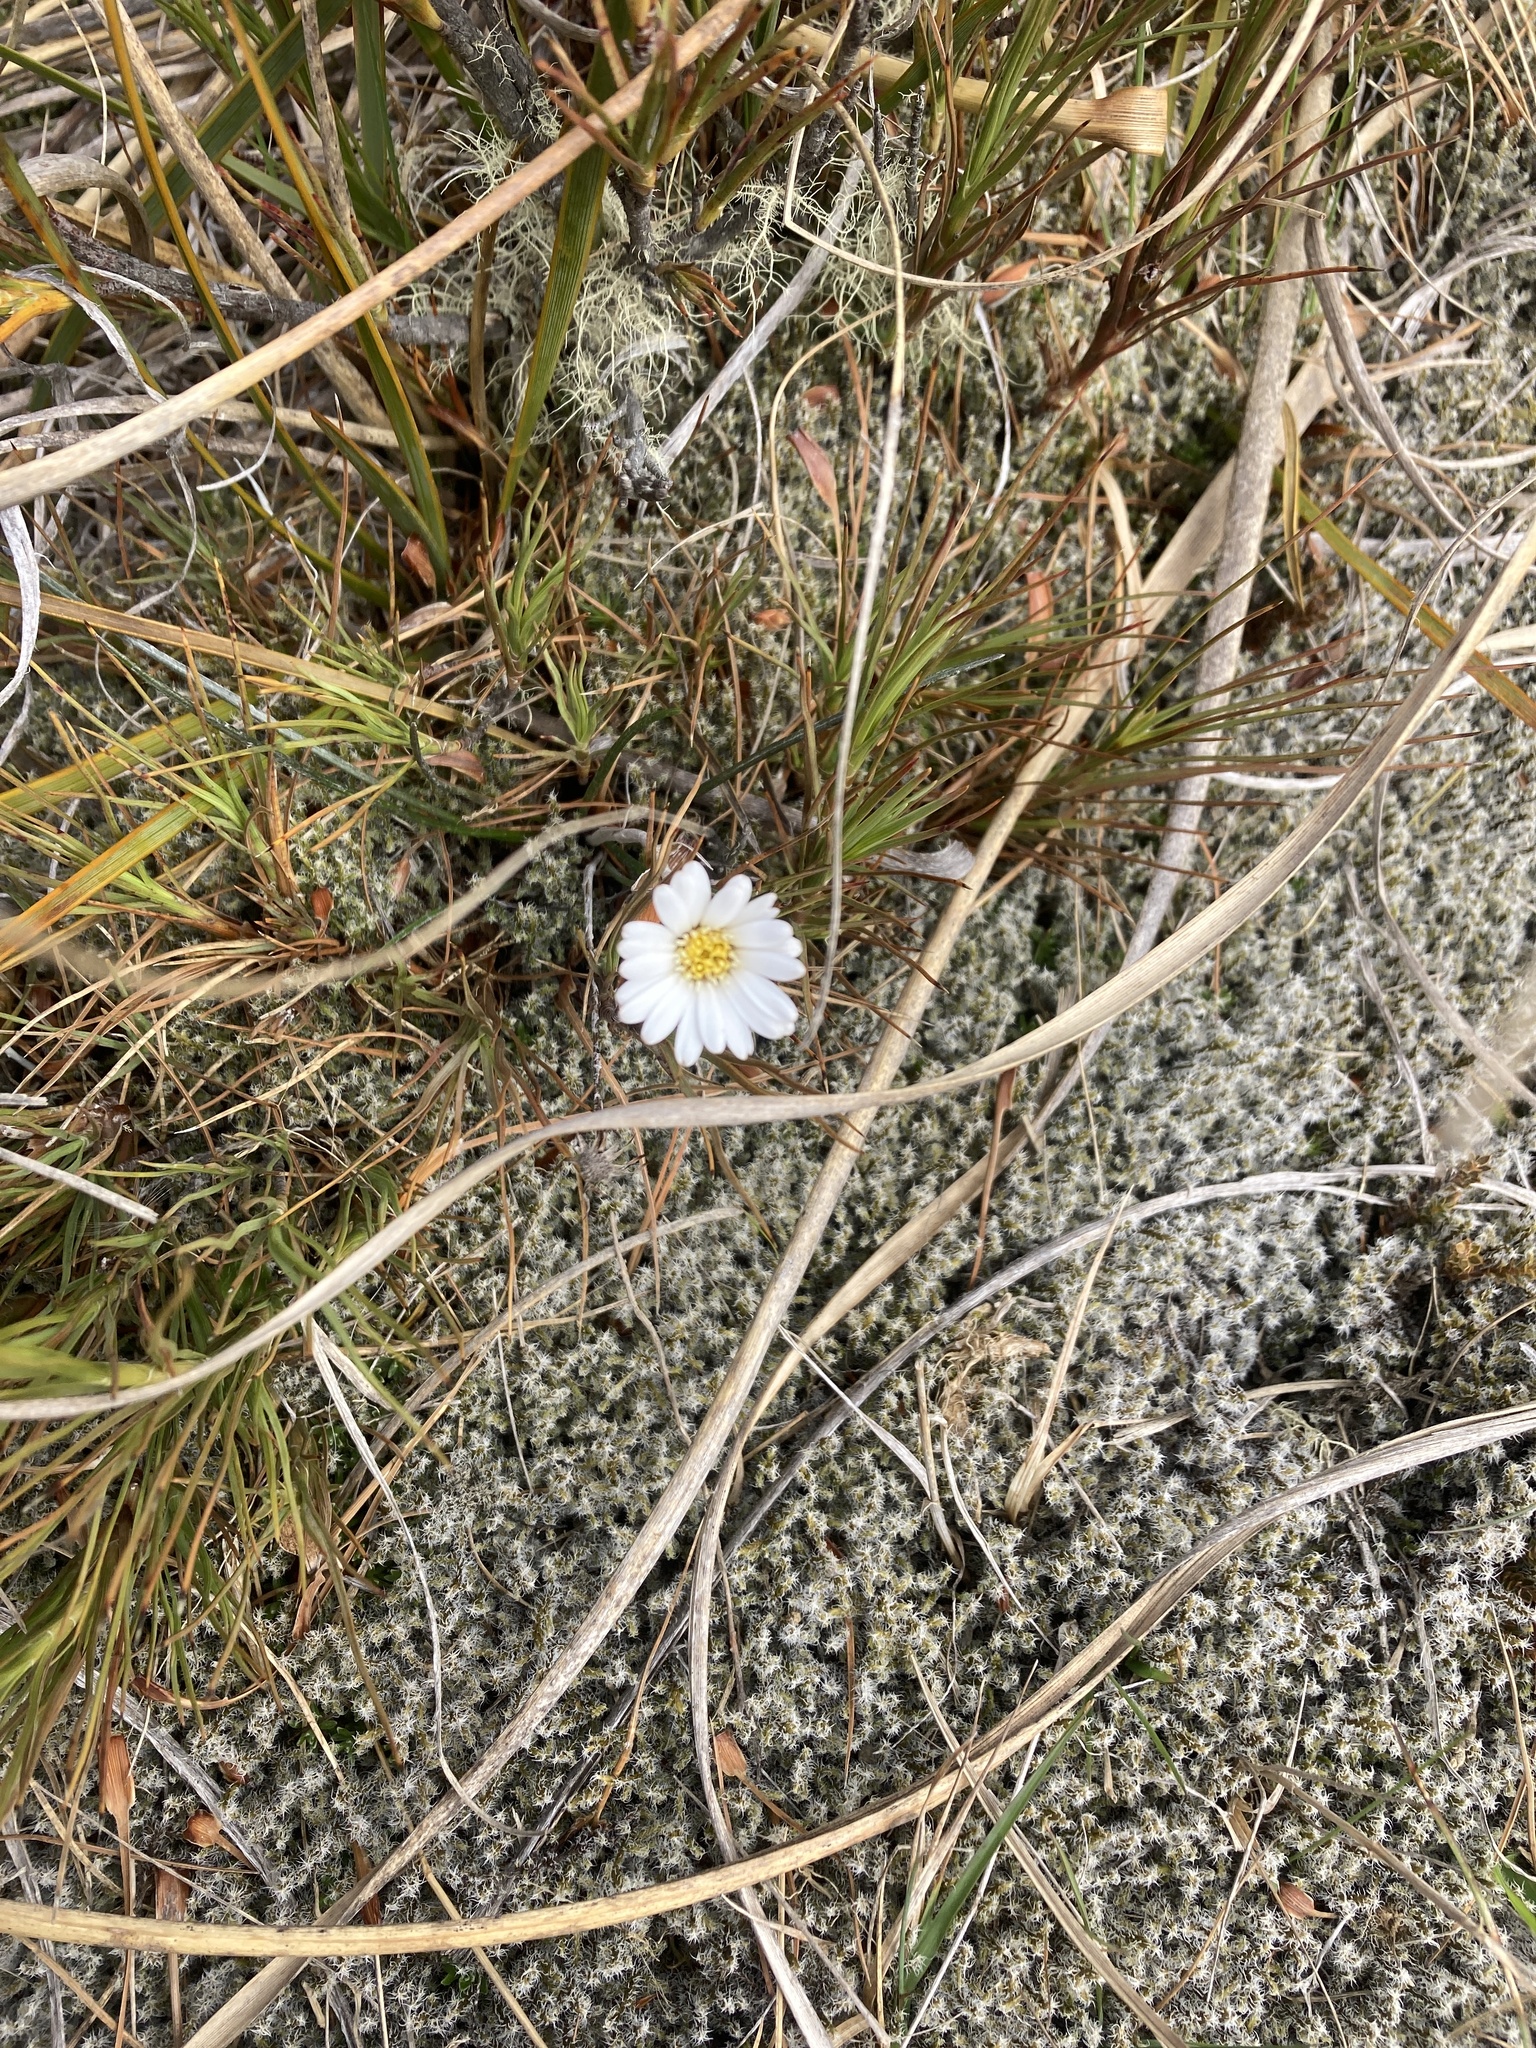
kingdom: Plantae
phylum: Tracheophyta
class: Magnoliopsida
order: Asterales
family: Asteraceae
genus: Celmisia
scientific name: Celmisia gracilenta
